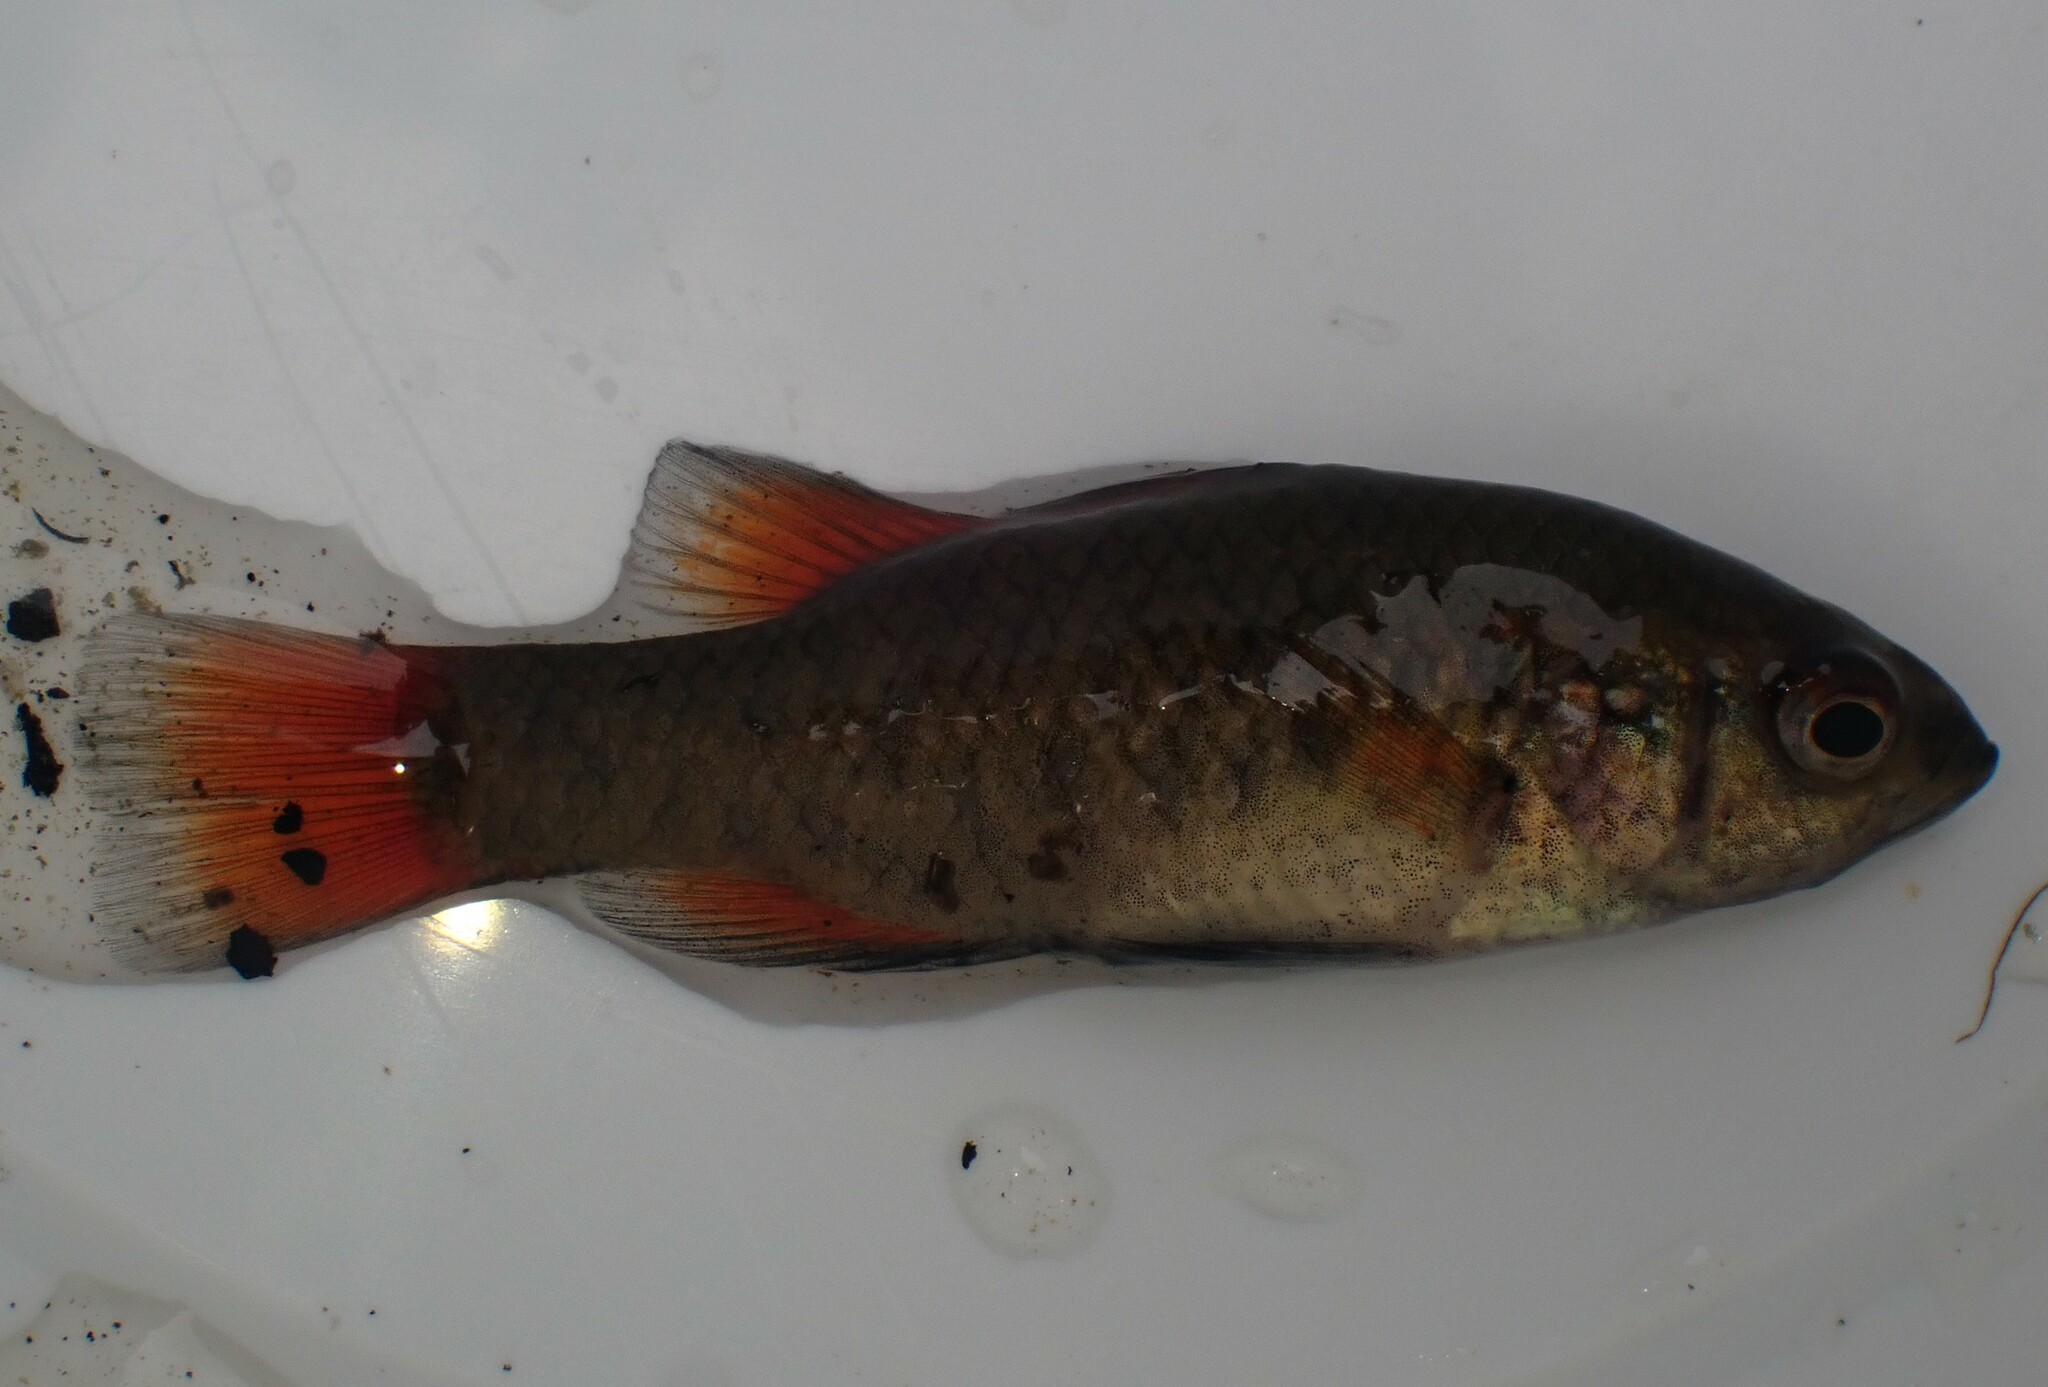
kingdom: Animalia
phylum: Chordata
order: Perciformes
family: Percichthyidae
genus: Nannoperca
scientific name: Nannoperca australis
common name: Southern pygmy perch
